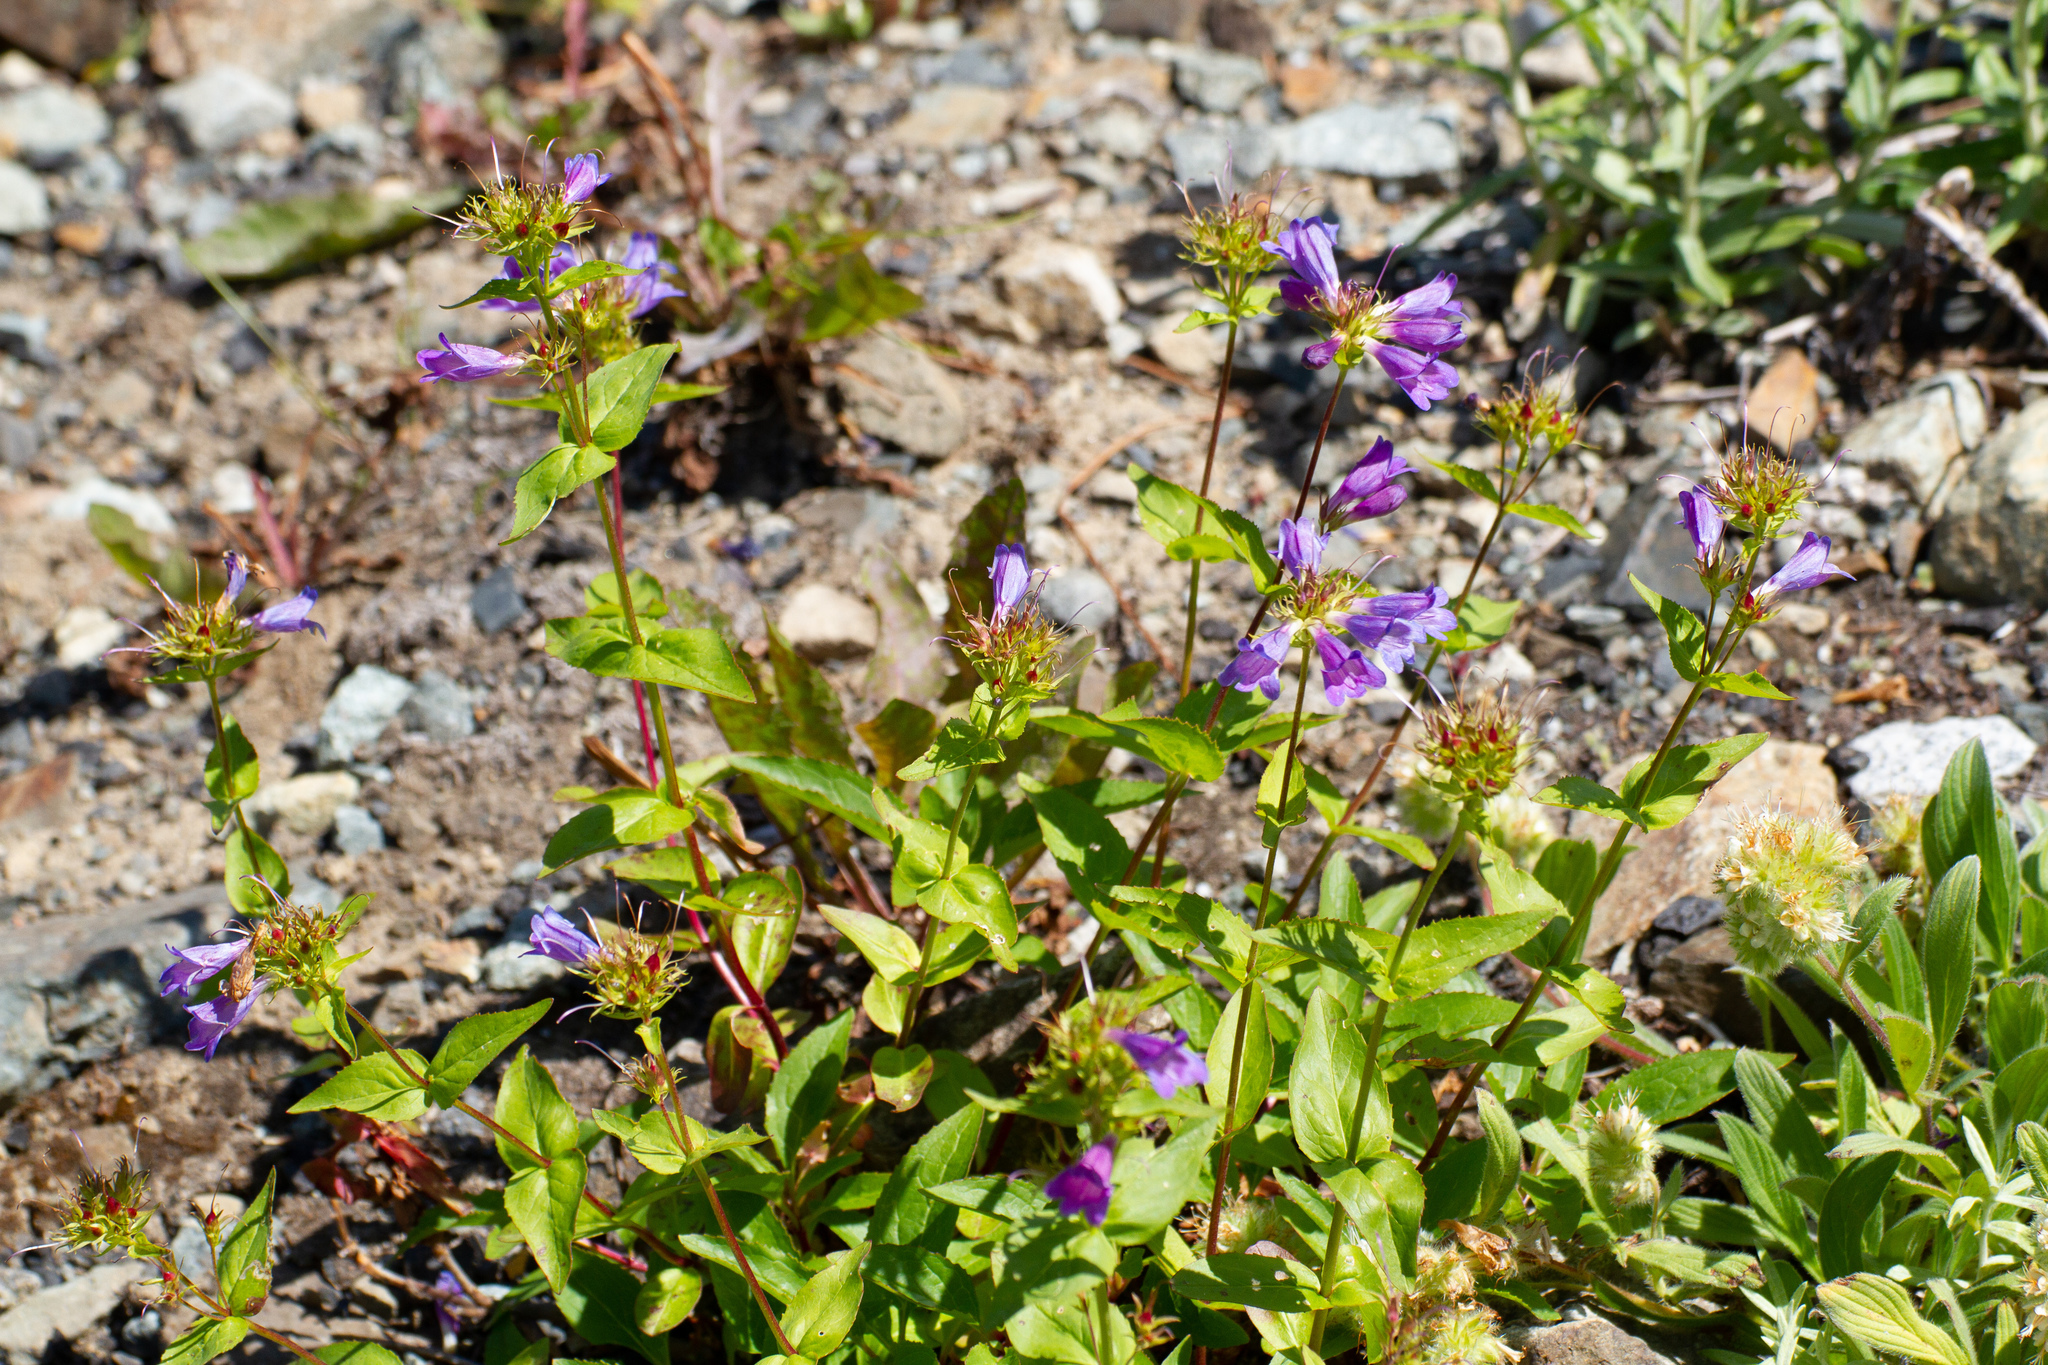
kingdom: Plantae
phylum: Tracheophyta
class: Magnoliopsida
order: Lamiales
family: Plantaginaceae
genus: Penstemon
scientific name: Penstemon serrulatus
